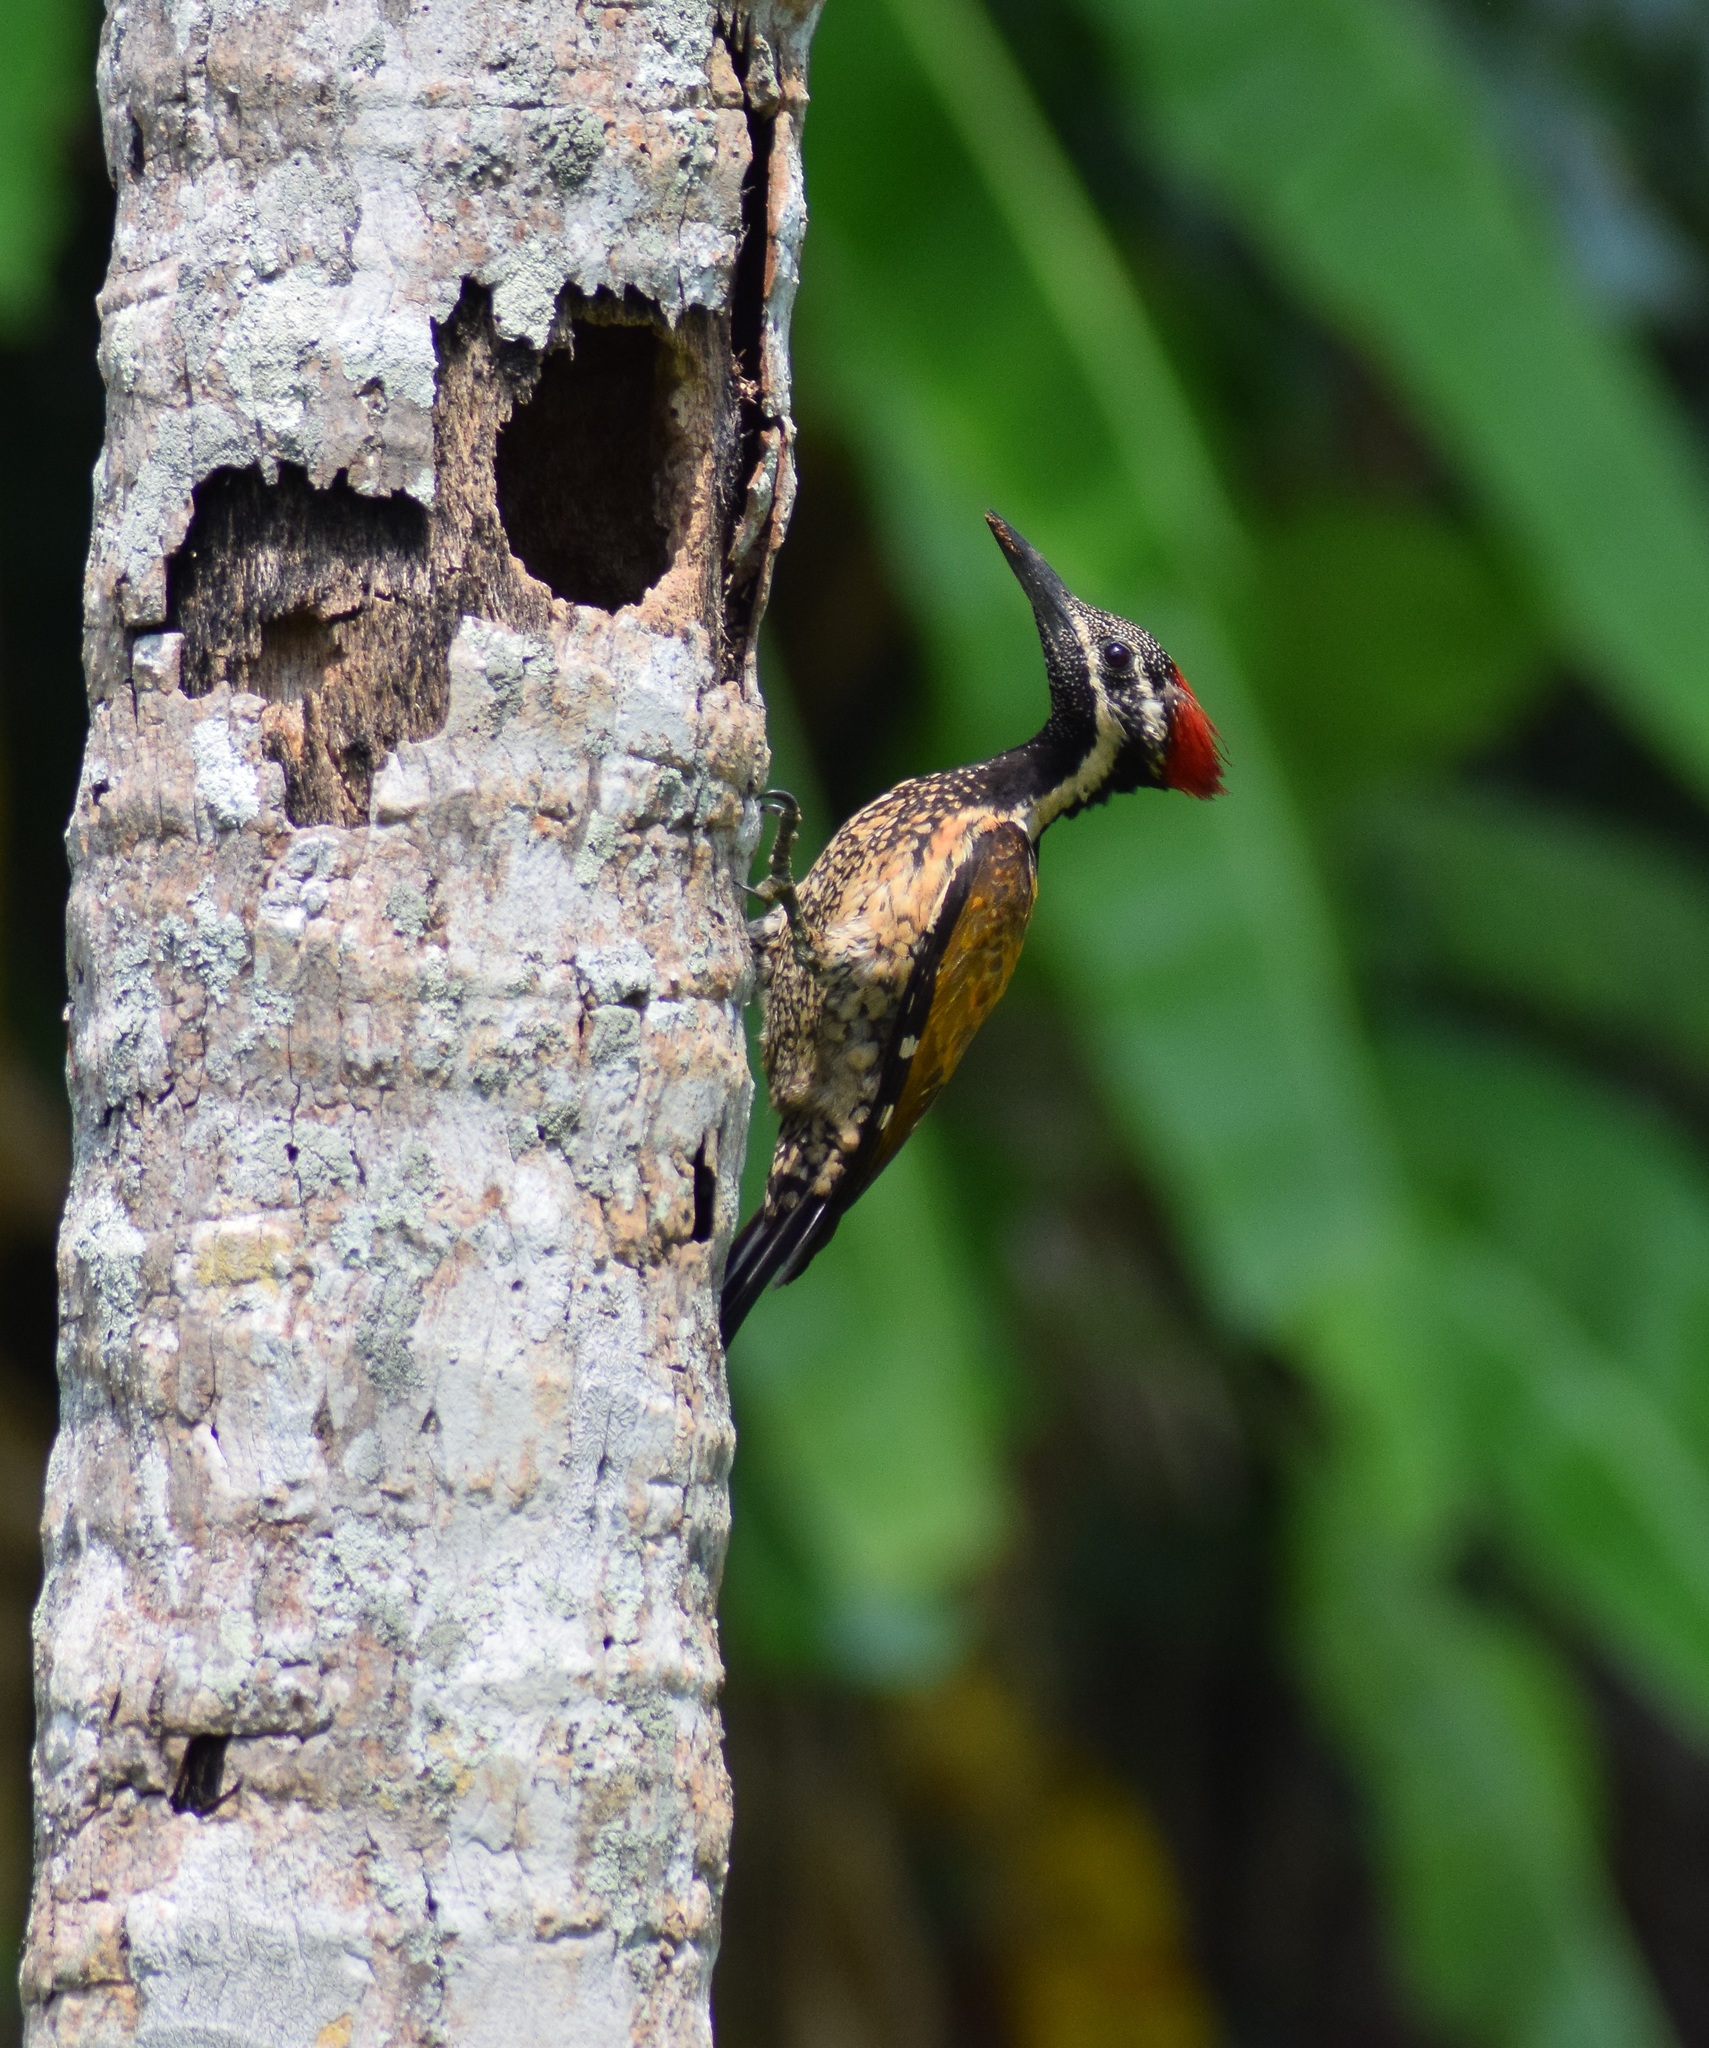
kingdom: Animalia
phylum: Chordata
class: Aves
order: Piciformes
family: Picidae
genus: Dinopium
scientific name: Dinopium benghalense
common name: Black-rumped flameback
